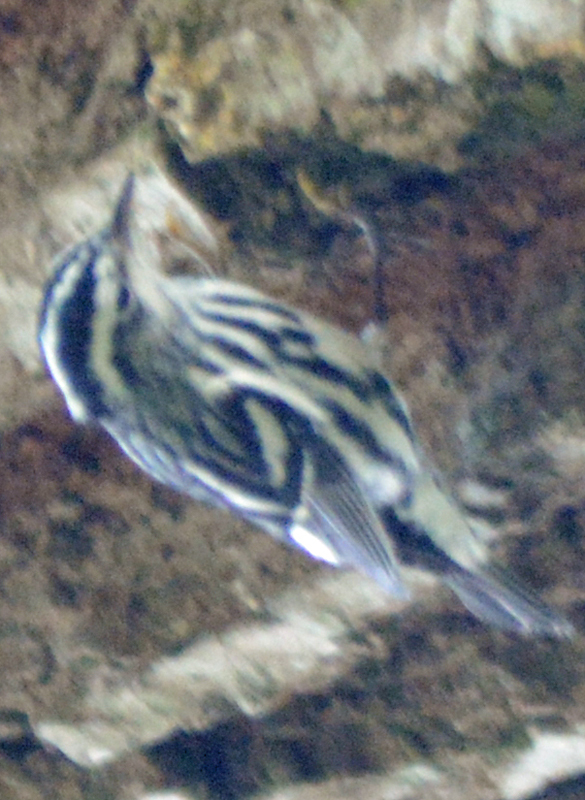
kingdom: Animalia
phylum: Chordata
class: Aves
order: Passeriformes
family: Parulidae
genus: Mniotilta
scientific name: Mniotilta varia
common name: Black-and-white warbler
